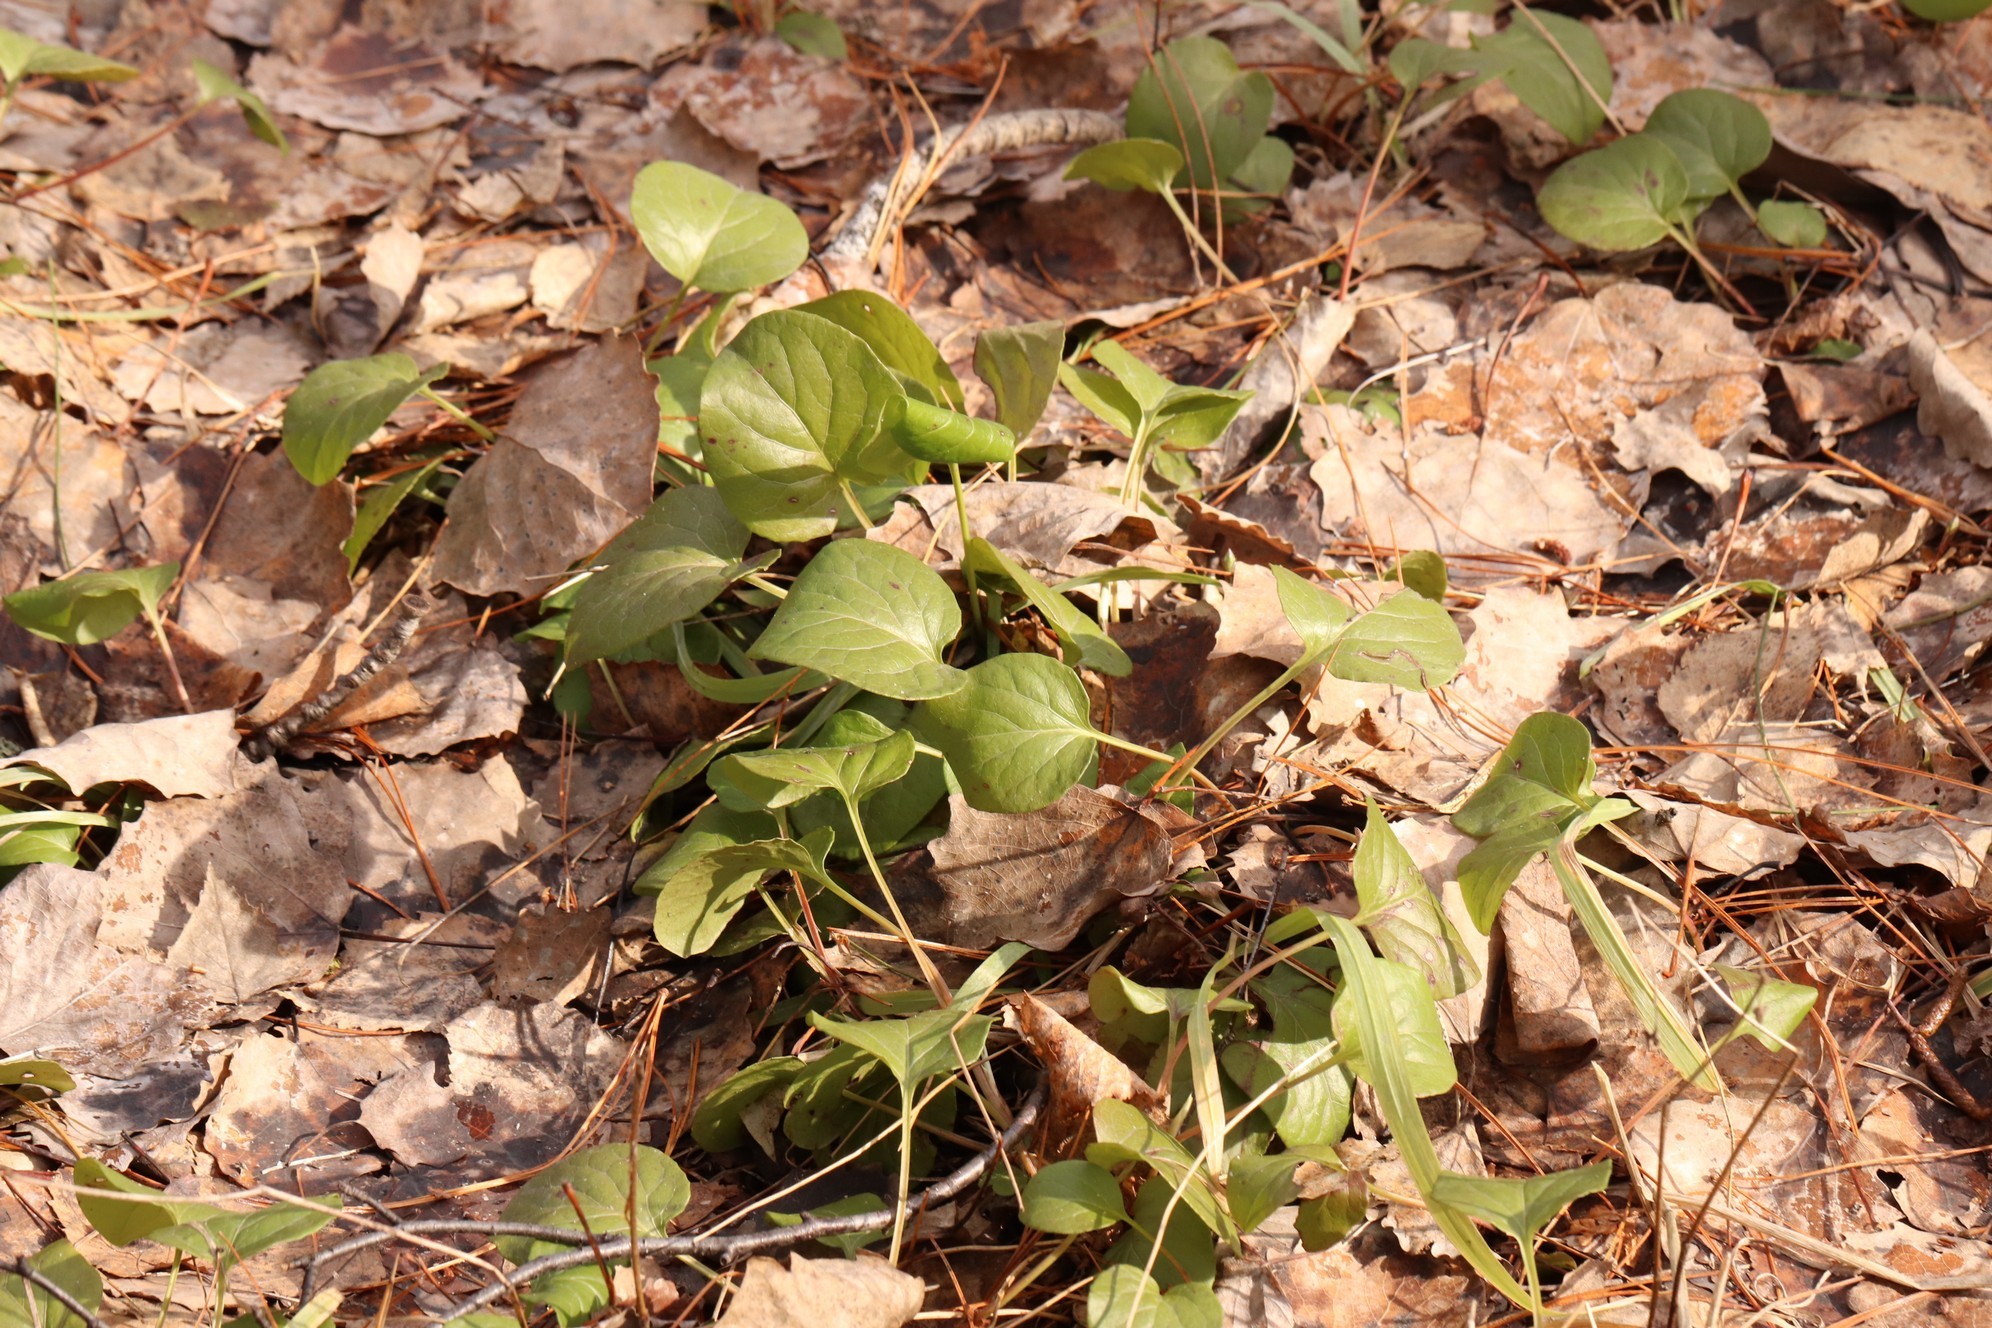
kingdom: Plantae
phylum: Tracheophyta
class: Magnoliopsida
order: Ericales
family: Ericaceae
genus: Pyrola
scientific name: Pyrola rotundifolia
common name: Round-leaved wintergreen
